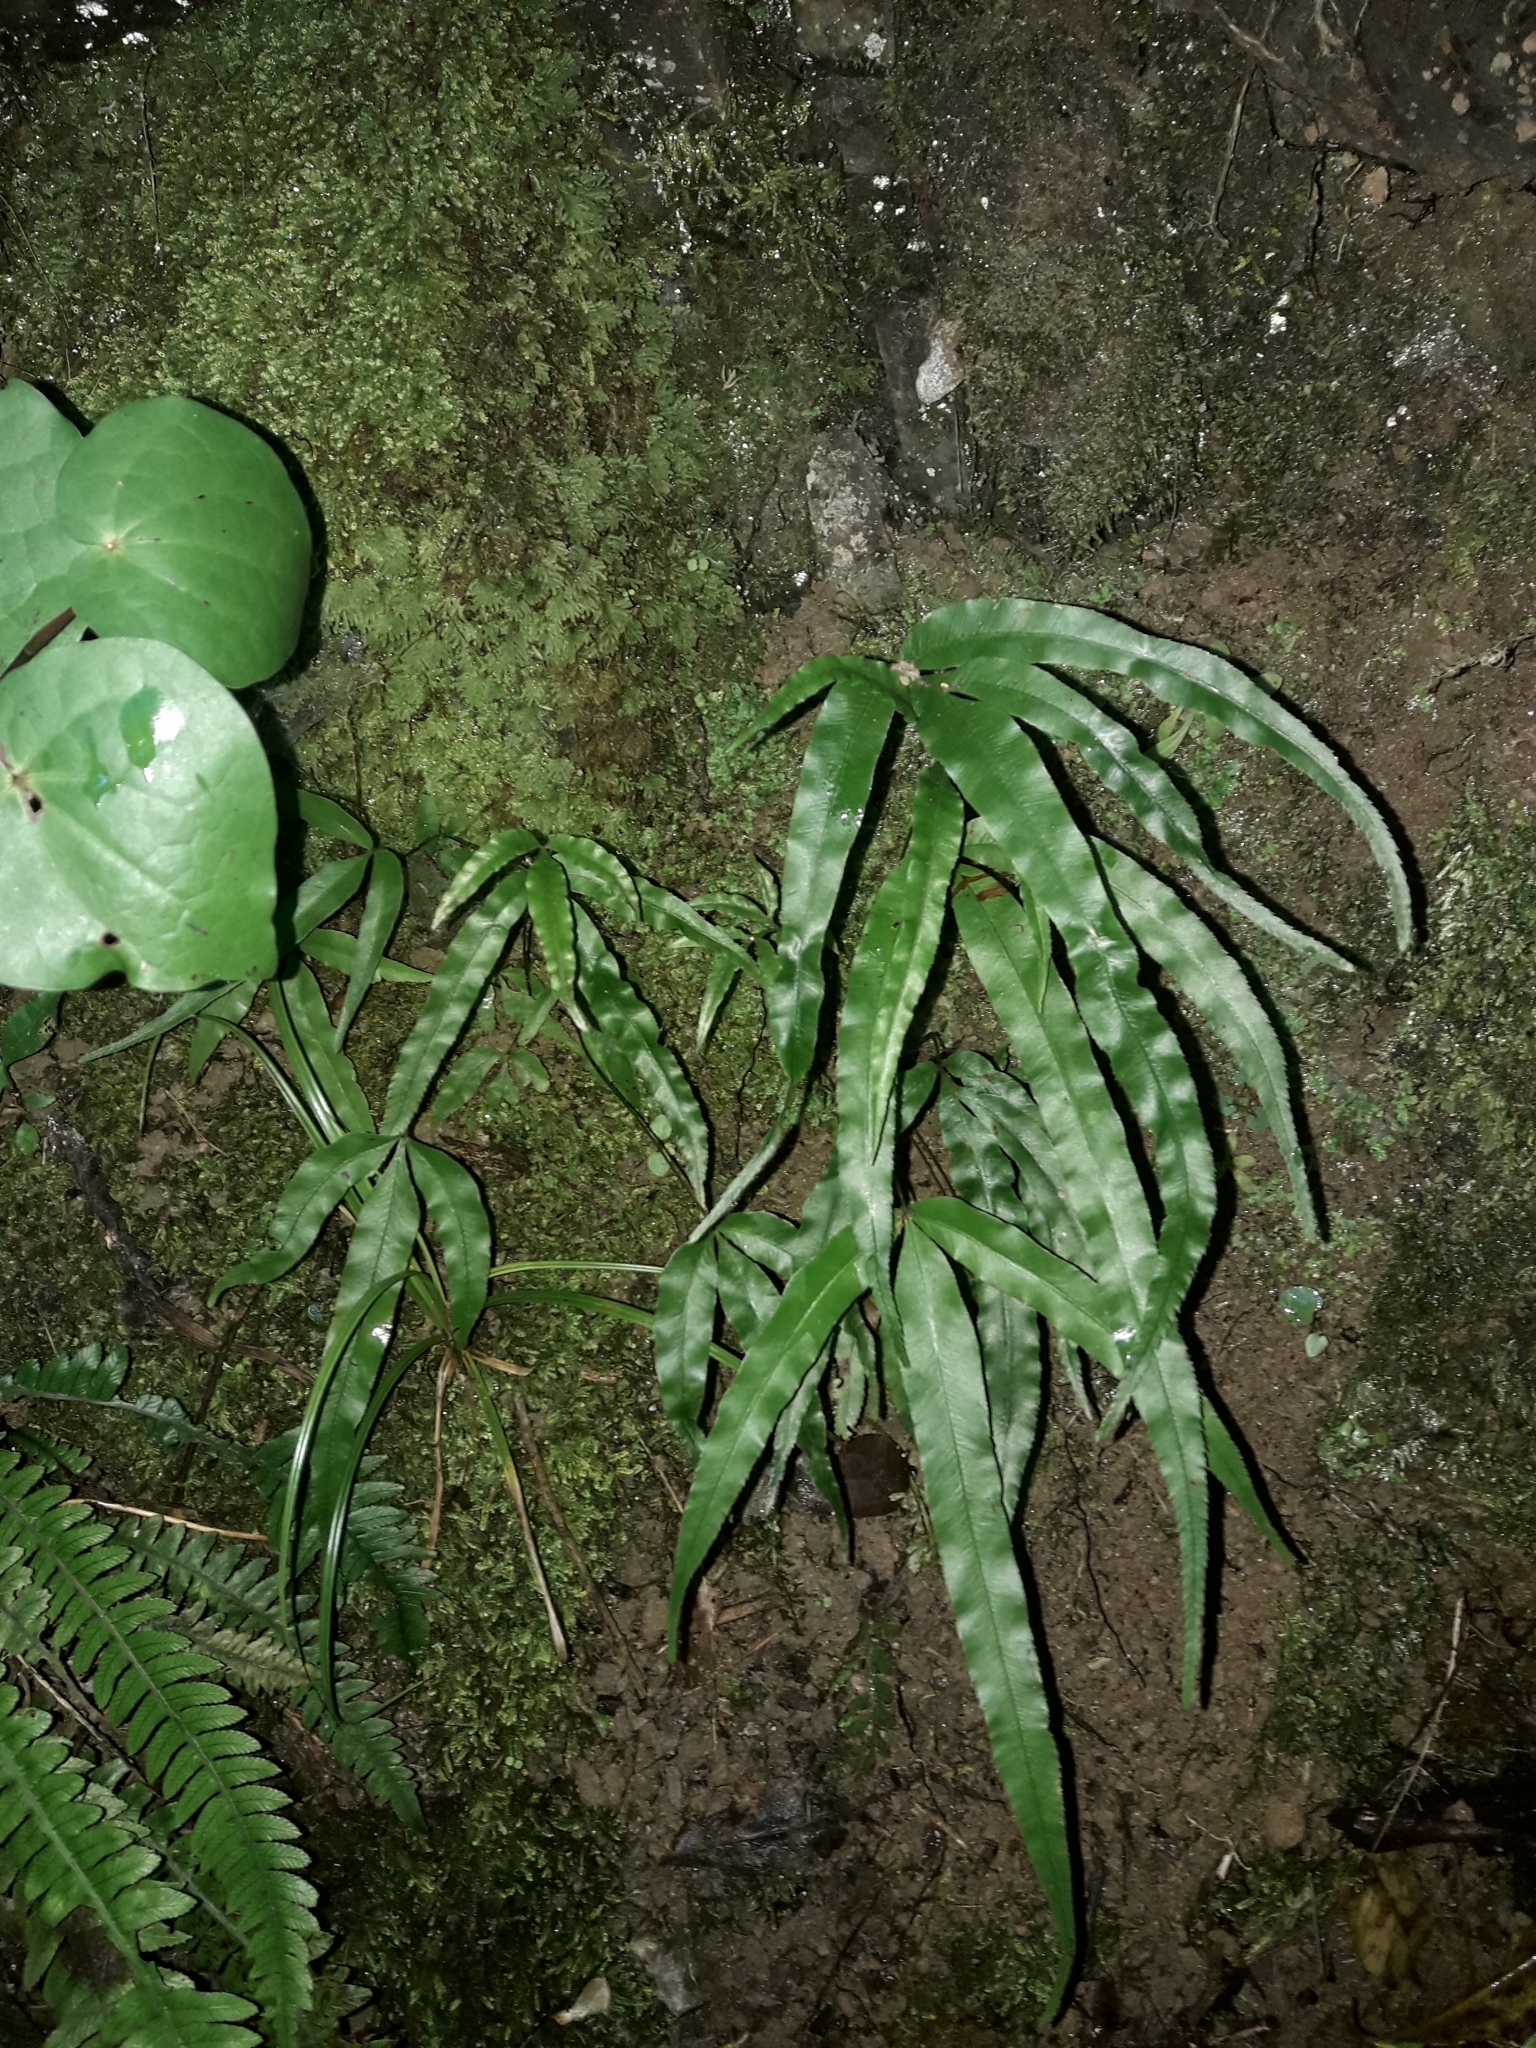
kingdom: Plantae
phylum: Tracheophyta
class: Polypodiopsida
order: Polypodiales
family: Pteridaceae
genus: Pteris
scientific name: Pteris cretica
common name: Ribbon fern
